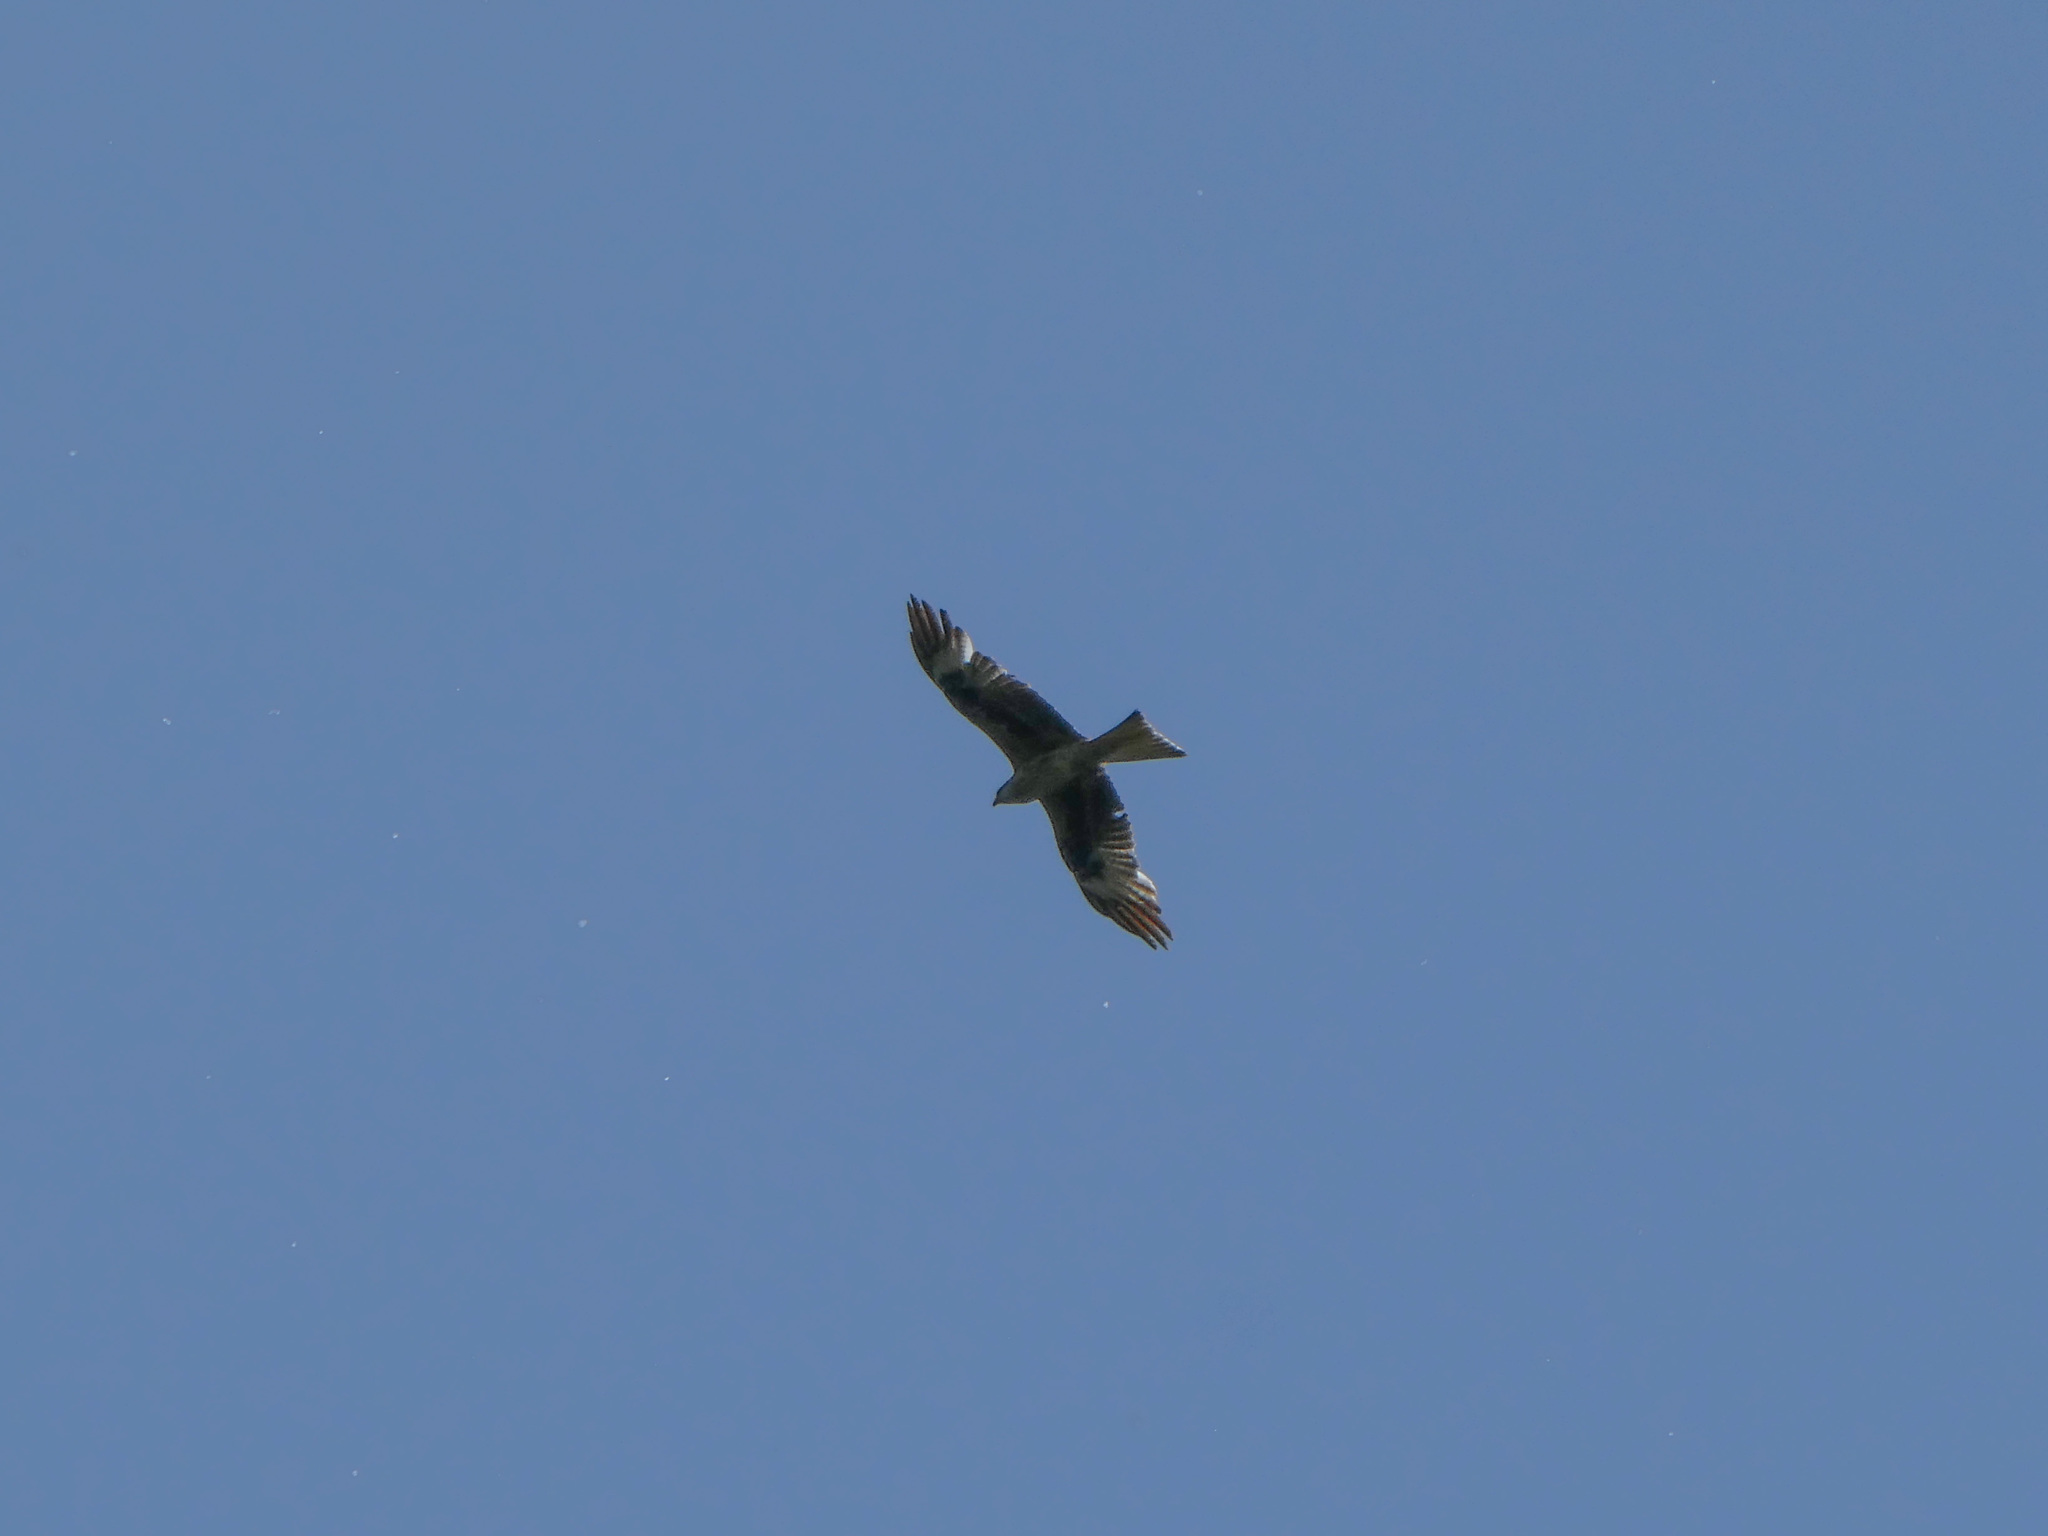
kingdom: Animalia
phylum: Chordata
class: Aves
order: Accipitriformes
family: Accipitridae
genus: Milvus
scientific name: Milvus milvus
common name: Red kite
